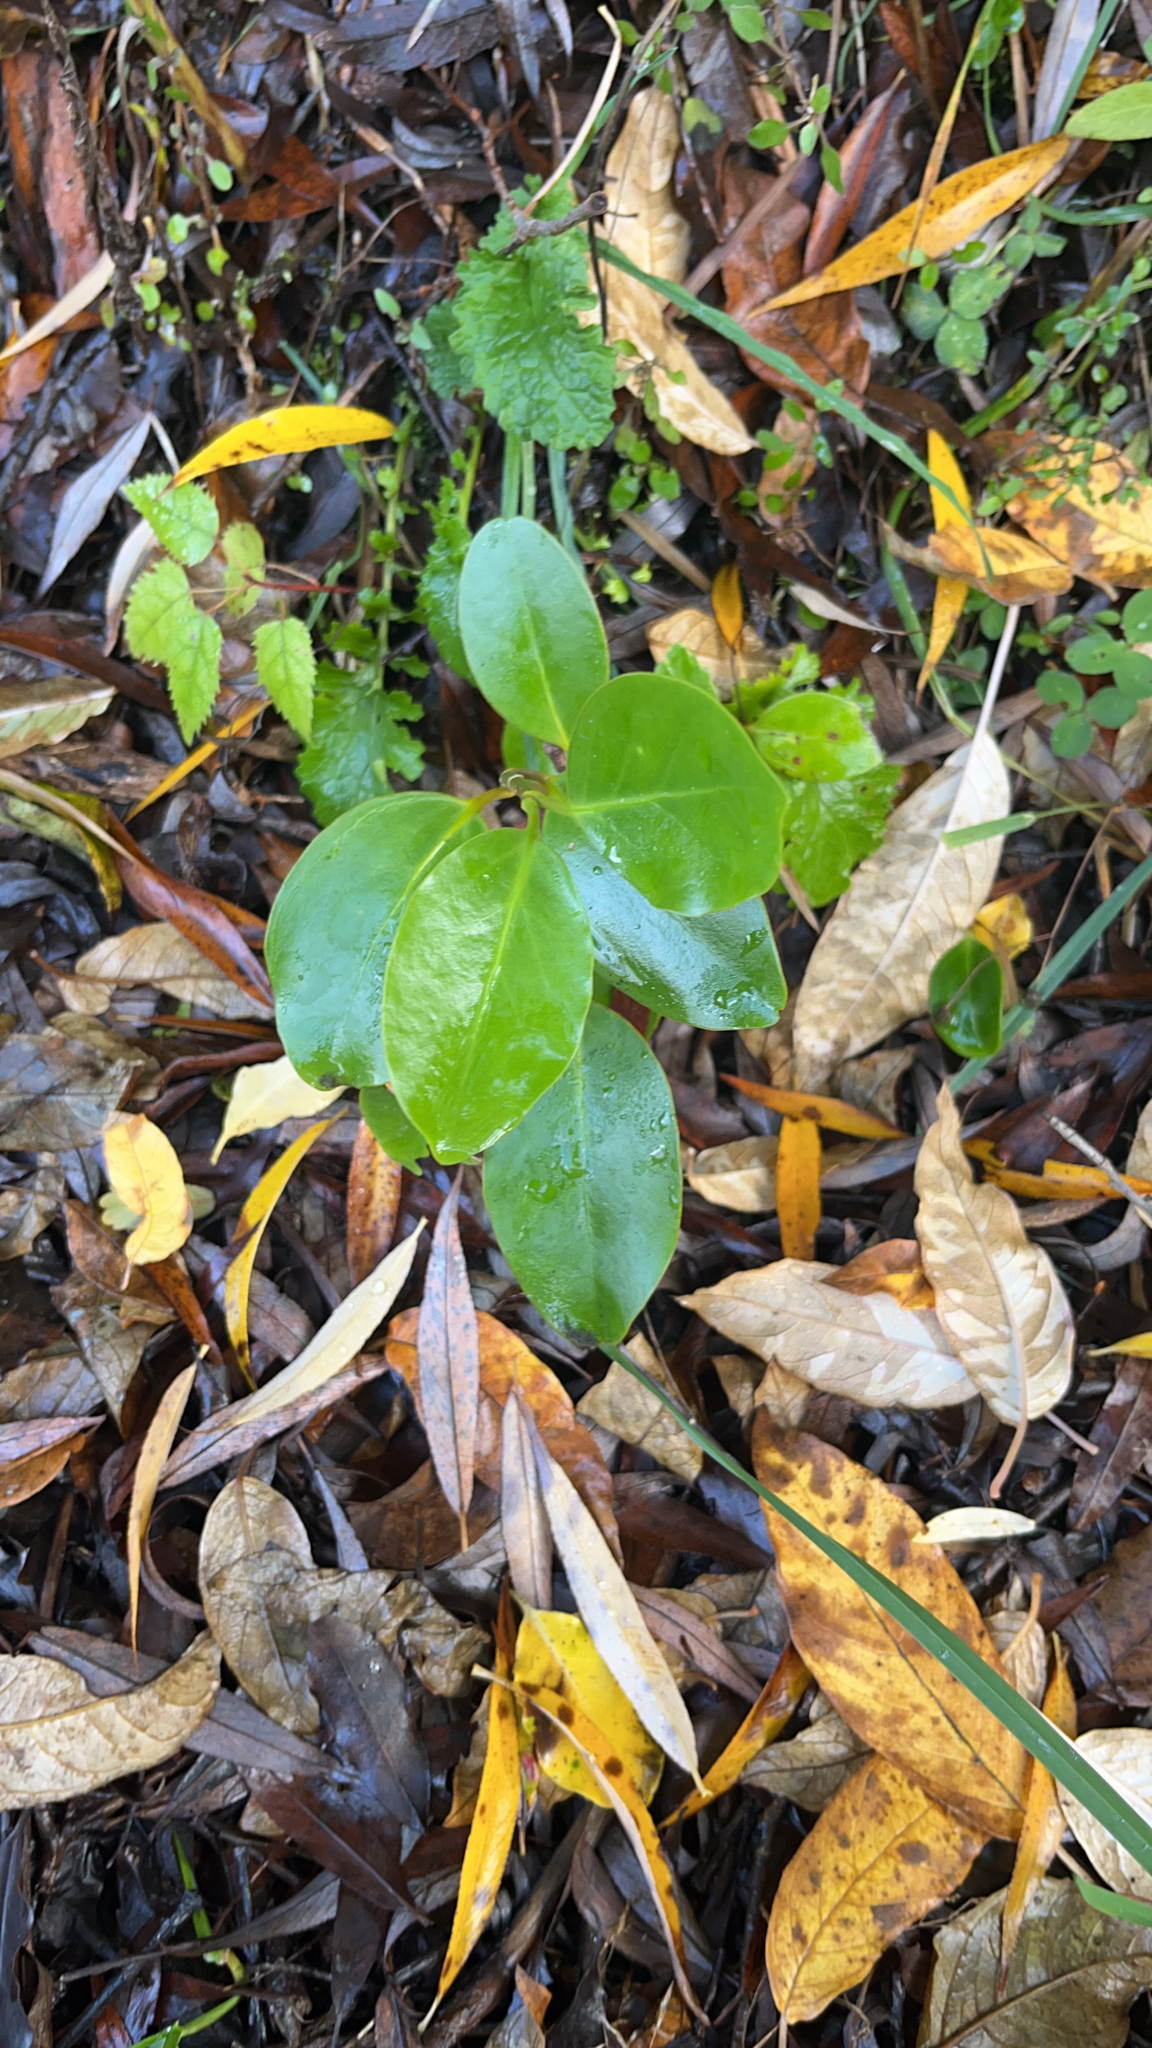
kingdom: Plantae
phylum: Tracheophyta
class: Magnoliopsida
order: Apiales
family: Griseliniaceae
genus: Griselinia
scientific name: Griselinia littoralis
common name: New zealand broadleaf
